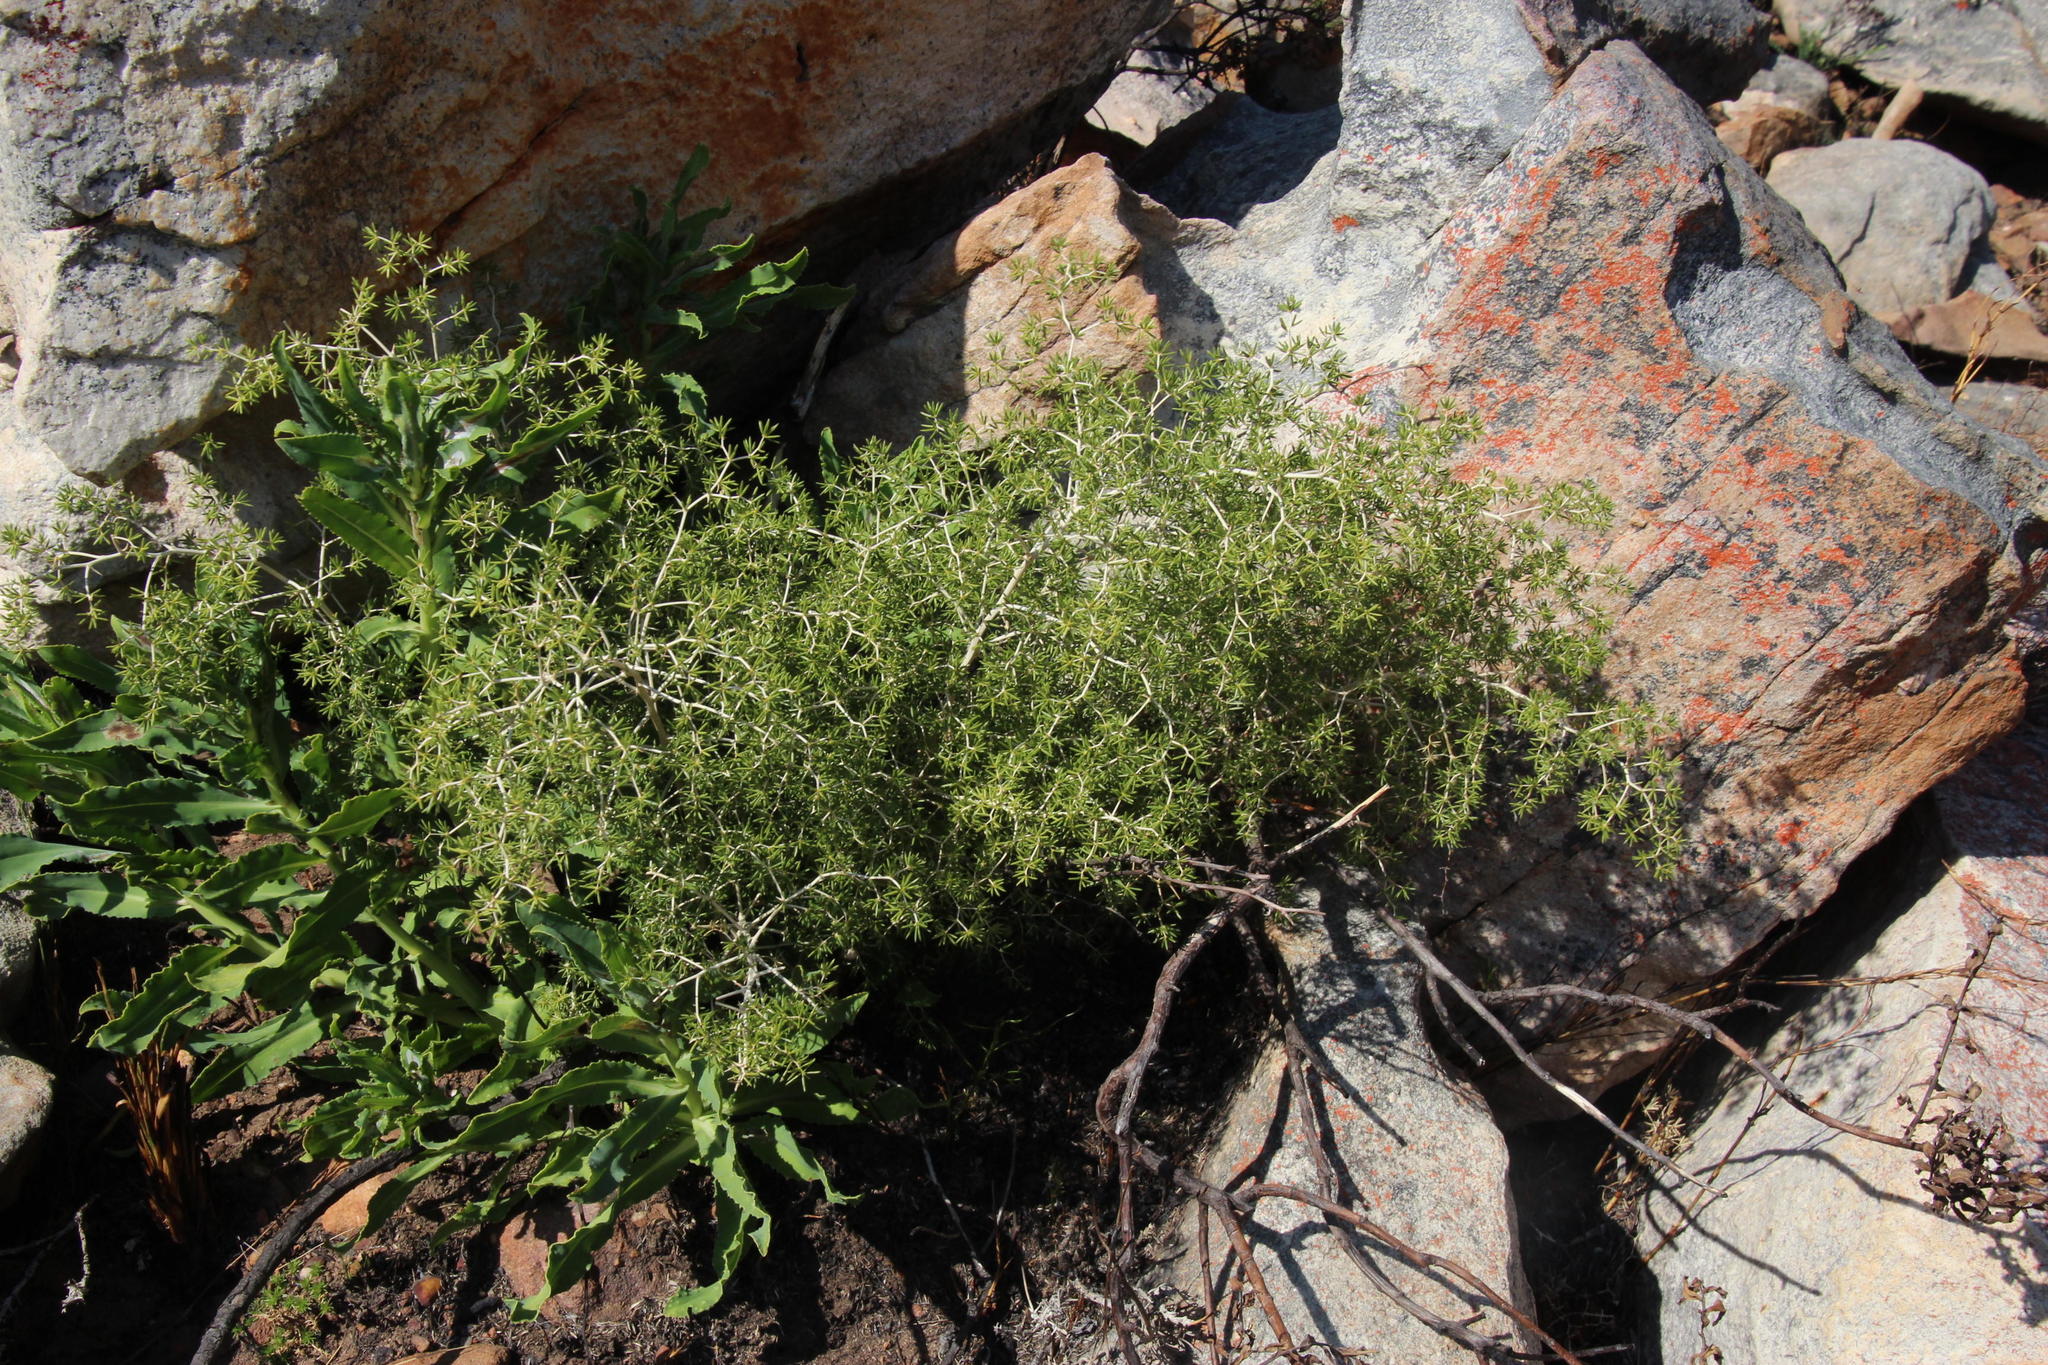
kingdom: Plantae
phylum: Tracheophyta
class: Liliopsida
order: Asparagales
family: Asparagaceae
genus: Asparagus
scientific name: Asparagus lignosus
